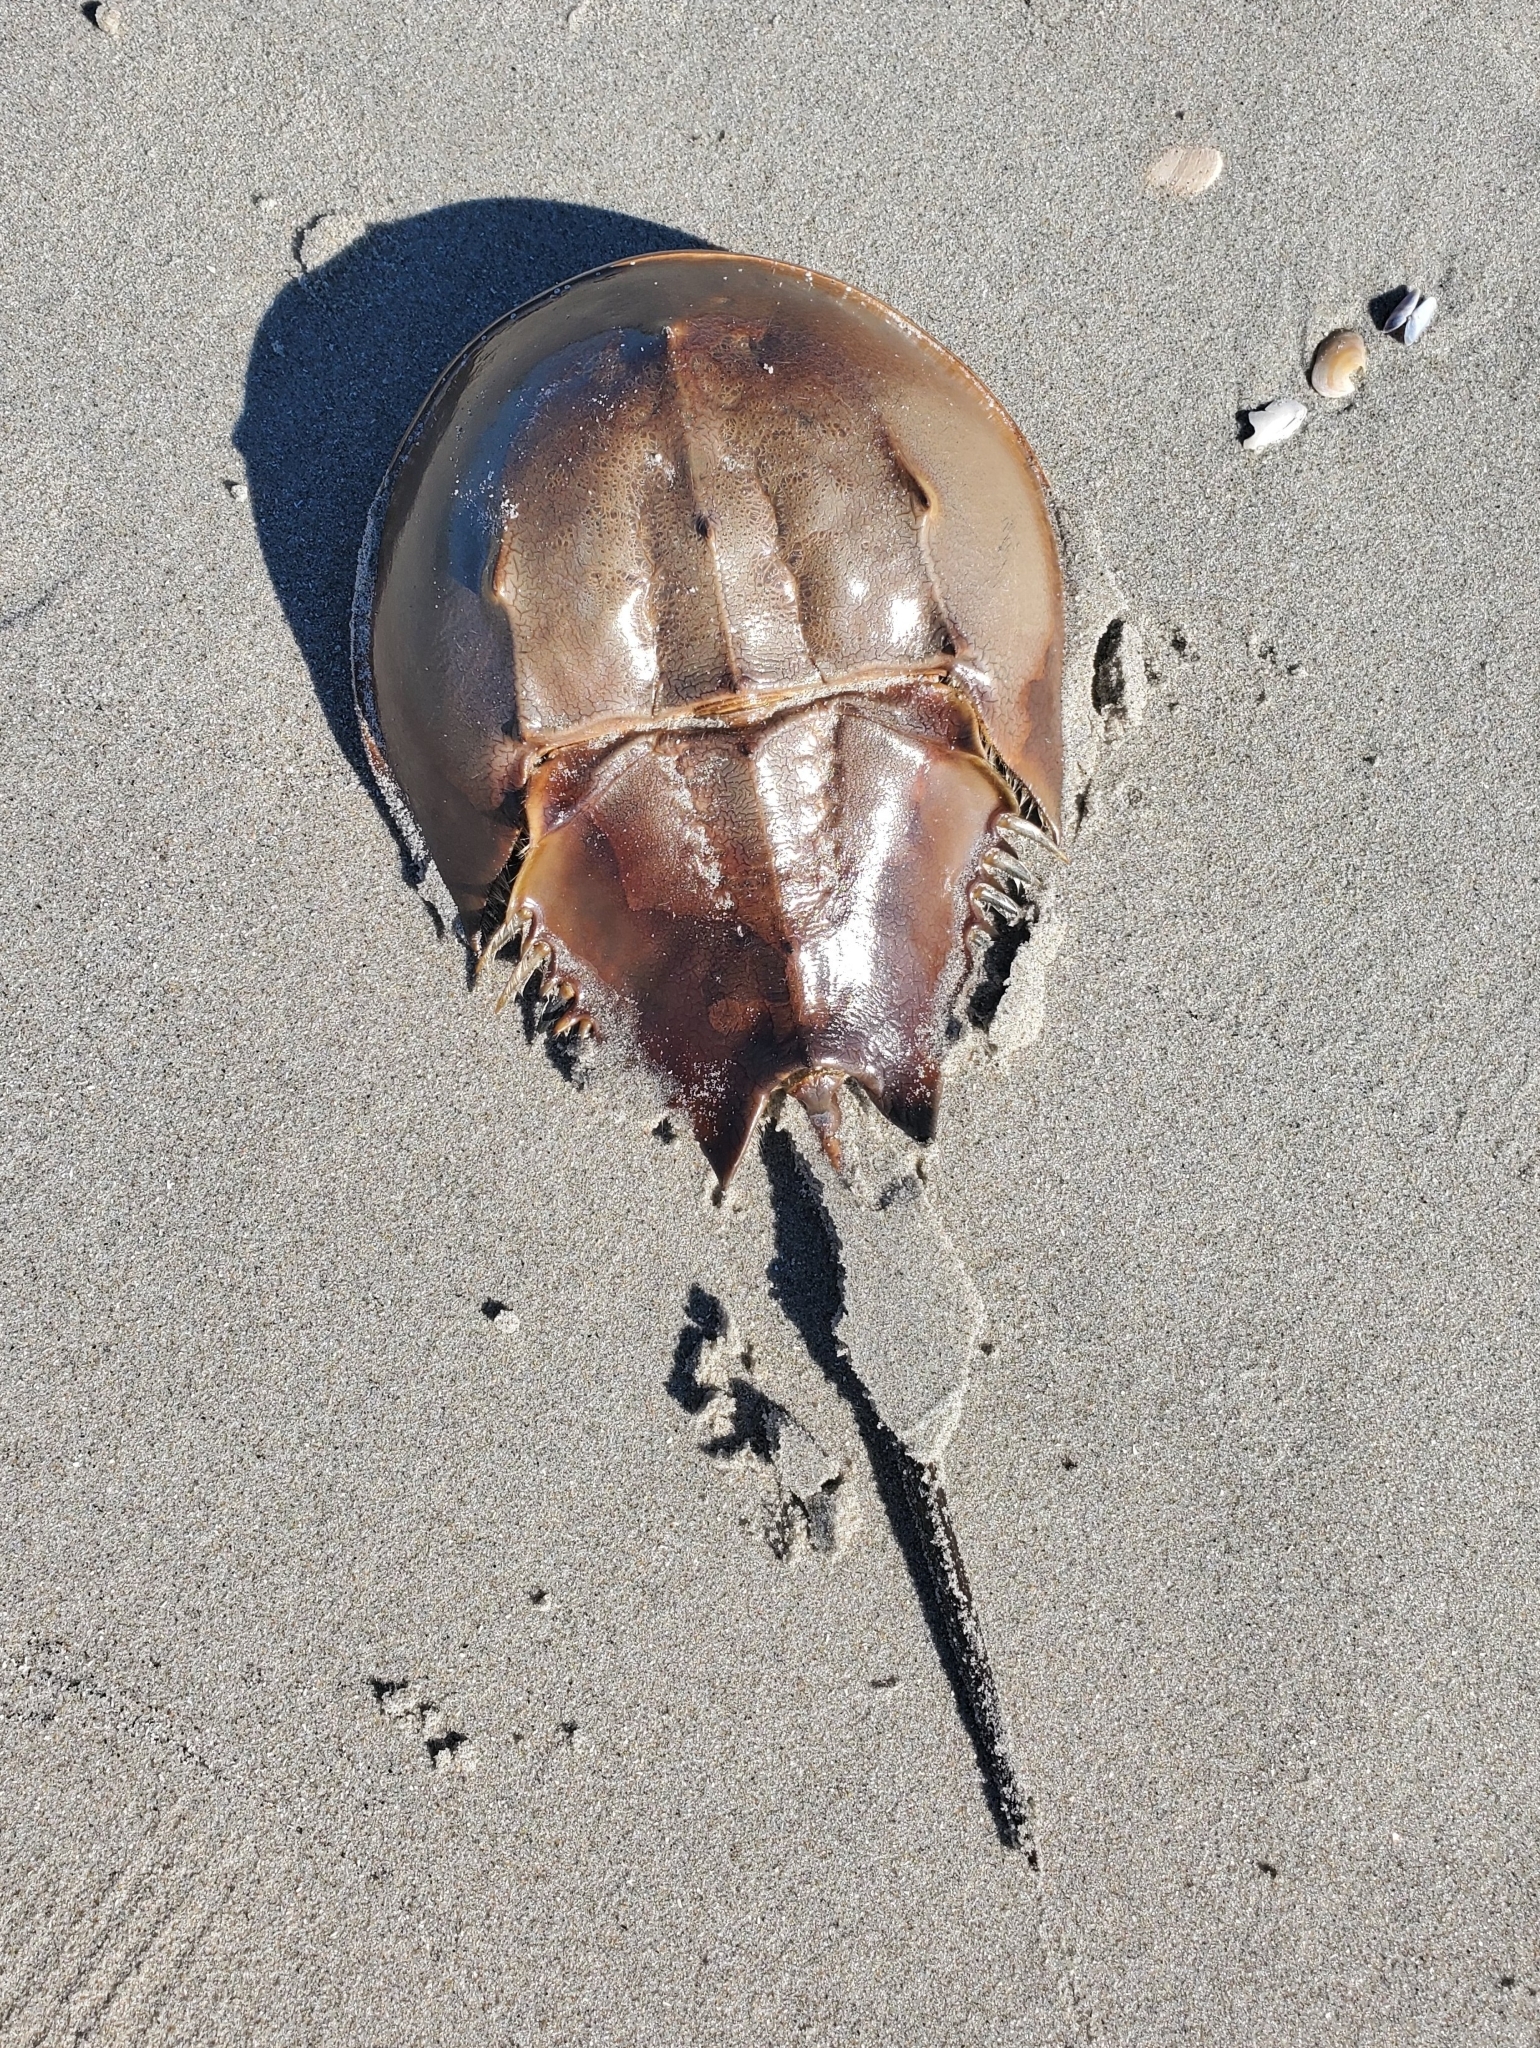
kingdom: Animalia
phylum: Arthropoda
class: Merostomata
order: Xiphosurida
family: Limulidae
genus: Limulus
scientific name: Limulus polyphemus
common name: Horseshoe crab
